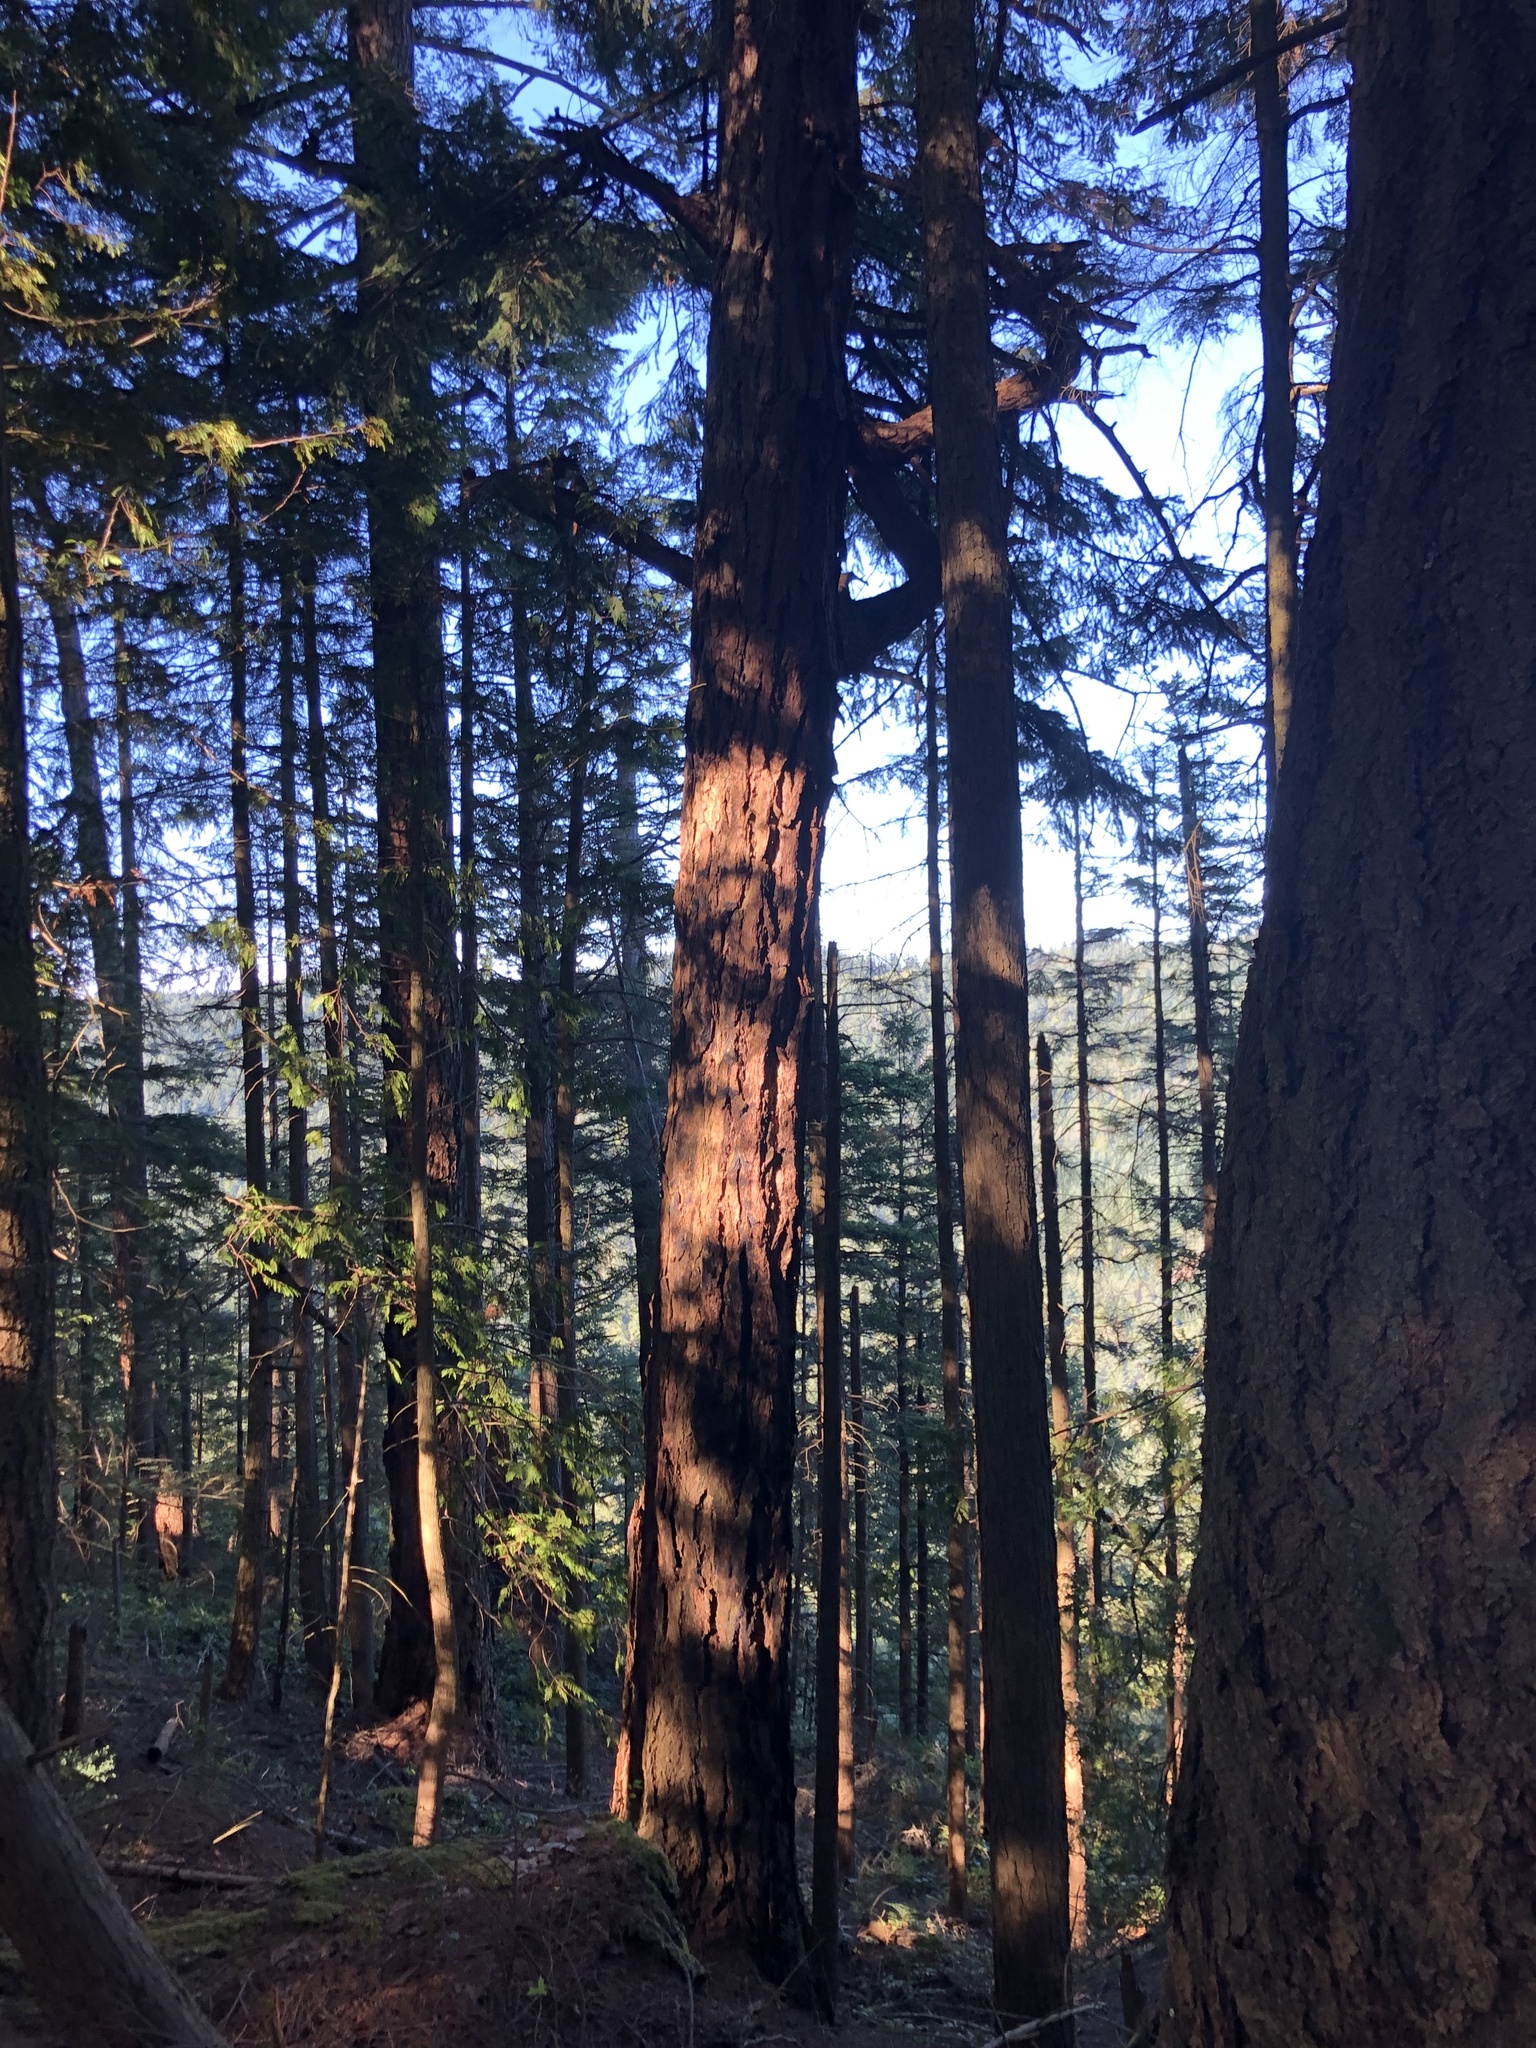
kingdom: Plantae
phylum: Tracheophyta
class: Pinopsida
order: Pinales
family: Pinaceae
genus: Pseudotsuga
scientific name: Pseudotsuga menziesii
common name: Douglas fir
